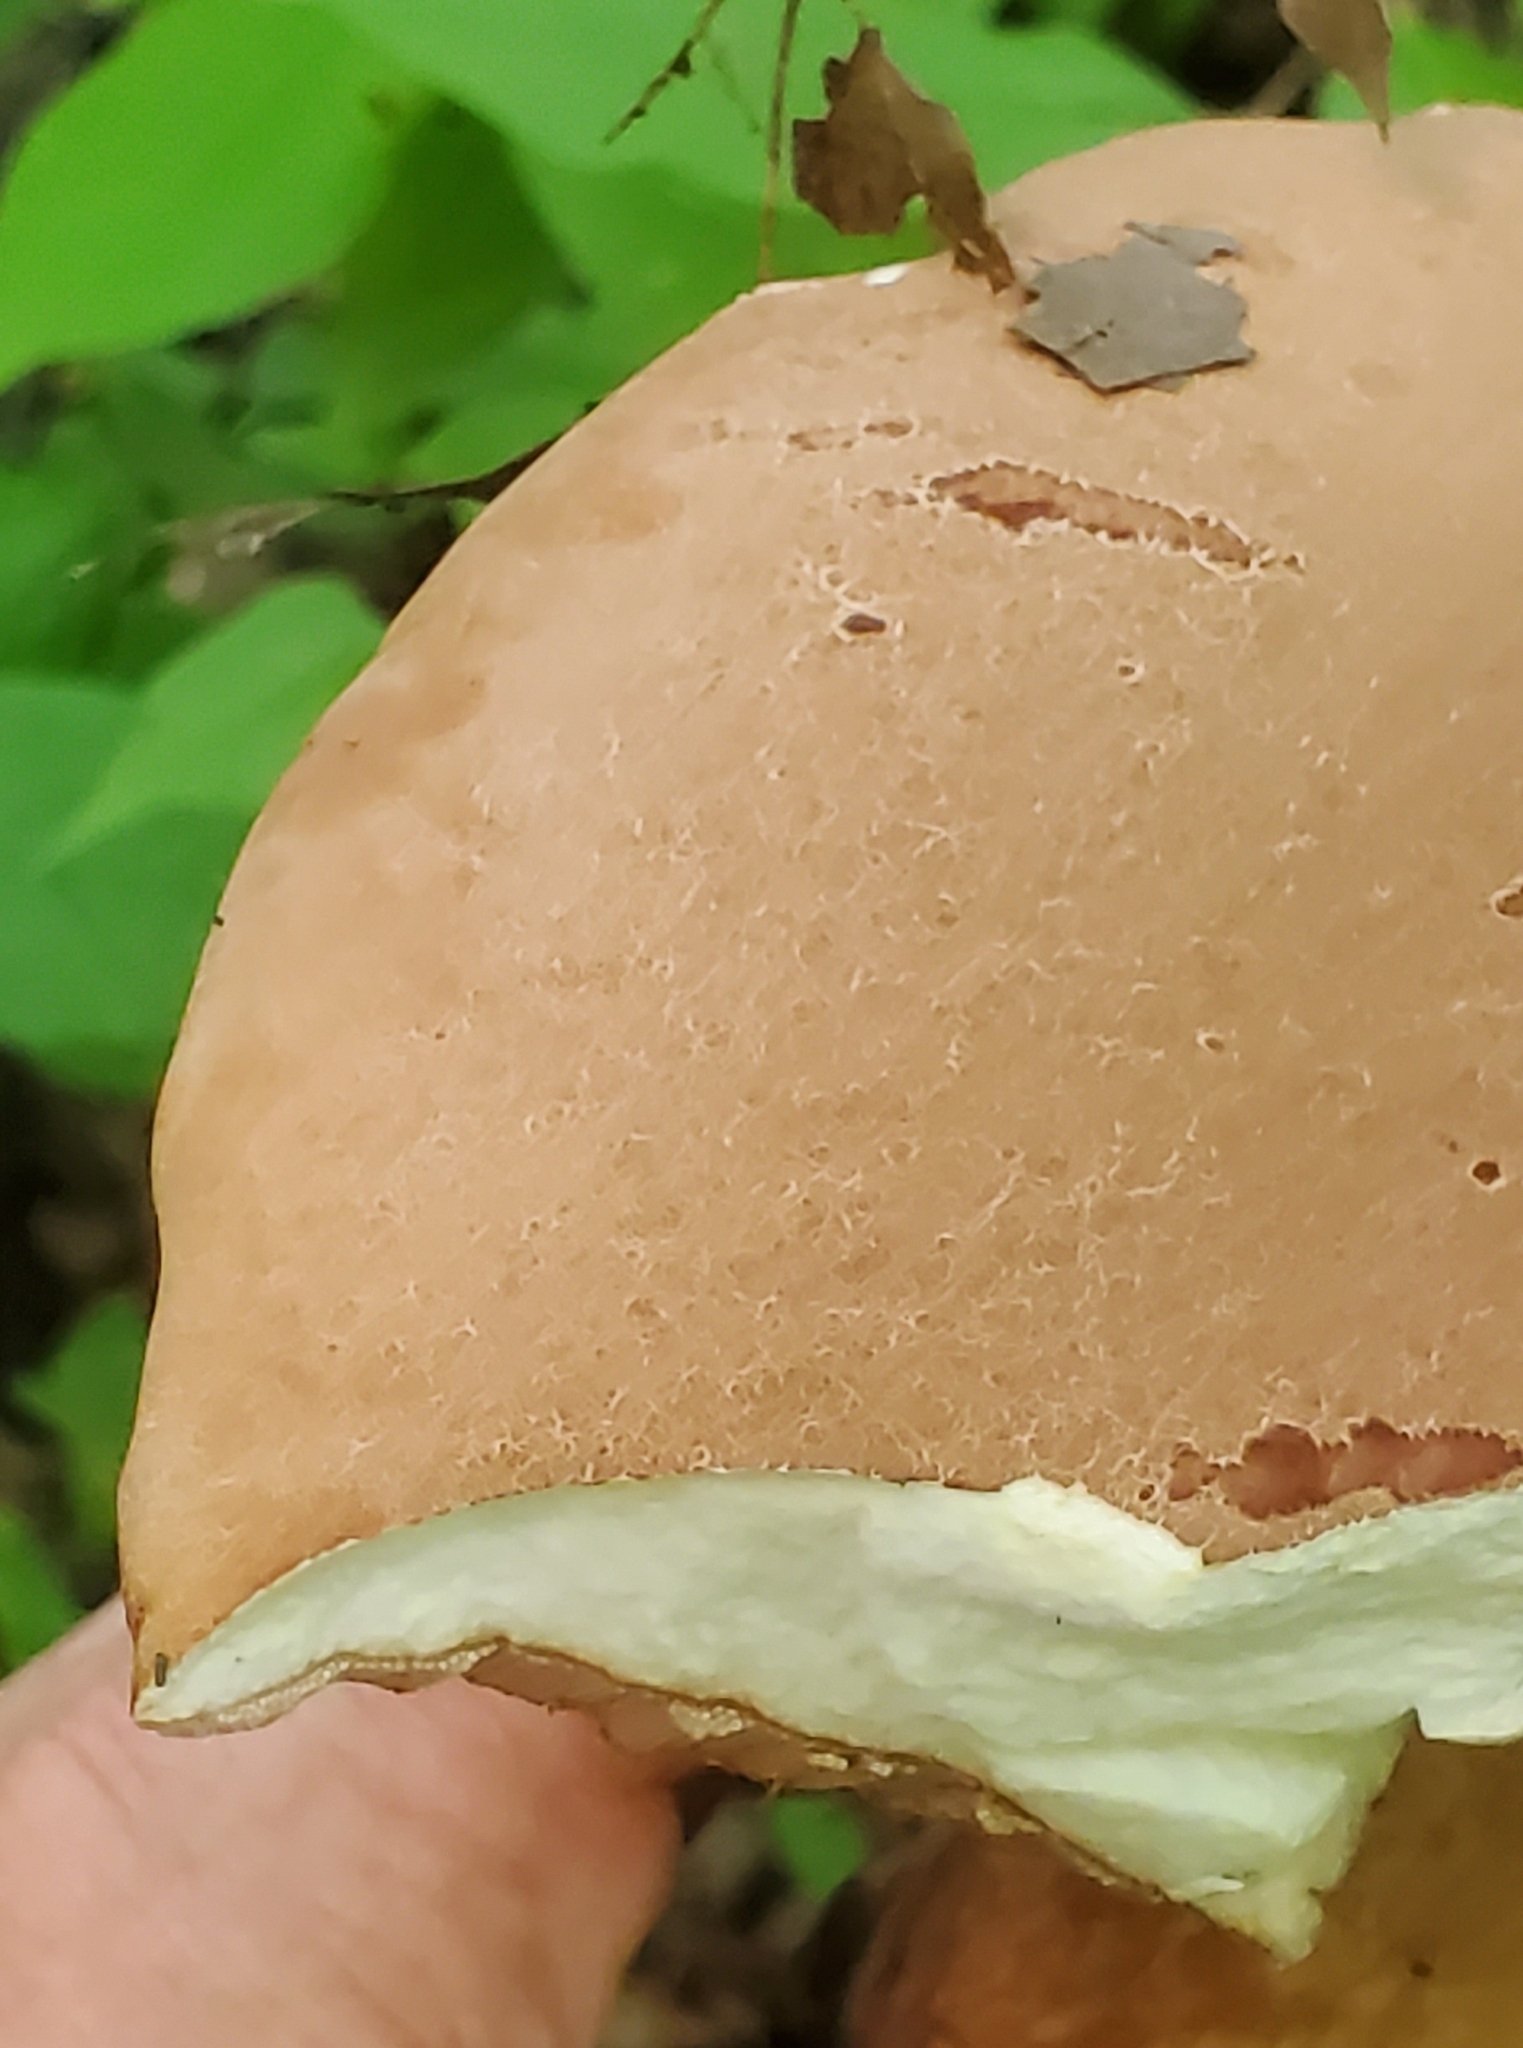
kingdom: Fungi
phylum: Basidiomycota
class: Agaricomycetes
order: Boletales
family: Boletaceae
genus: Tylopilus
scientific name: Tylopilus felleus
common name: Bitter bolete
